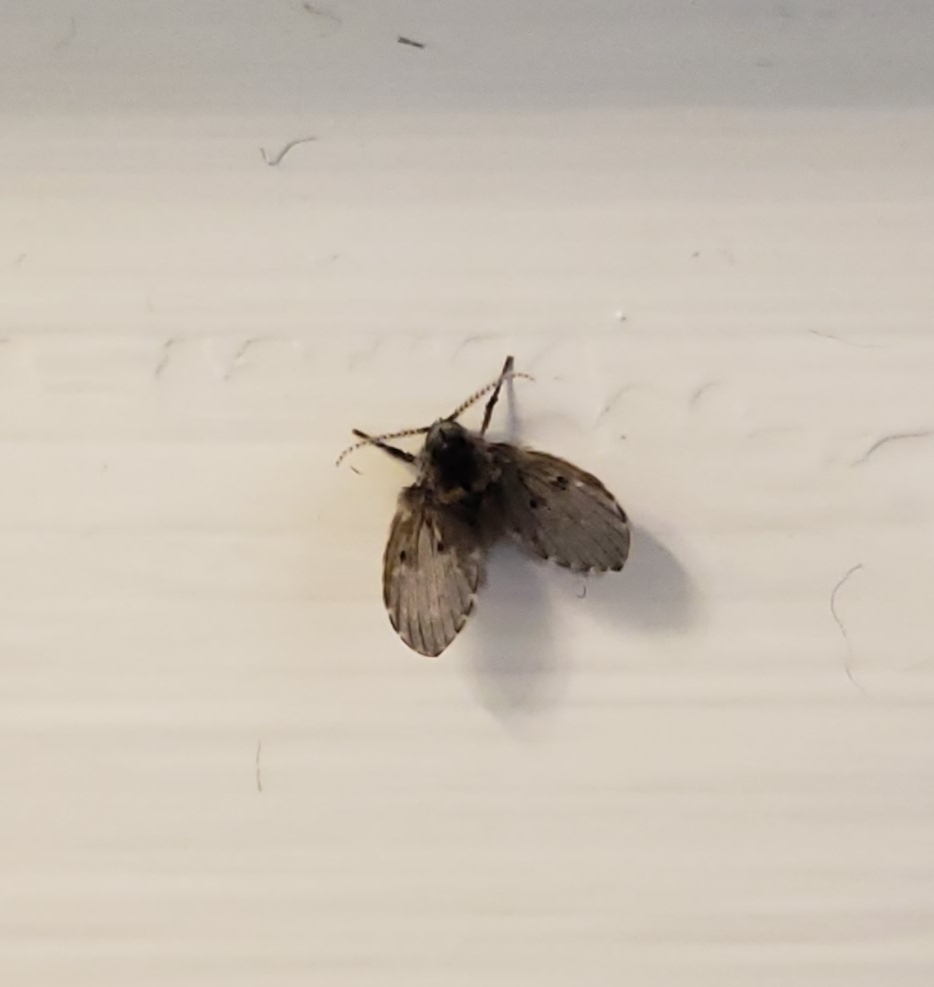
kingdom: Animalia
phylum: Arthropoda
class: Insecta
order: Diptera
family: Psychodidae
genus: Clogmia
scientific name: Clogmia albipunctatus
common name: White-spotted moth fly
